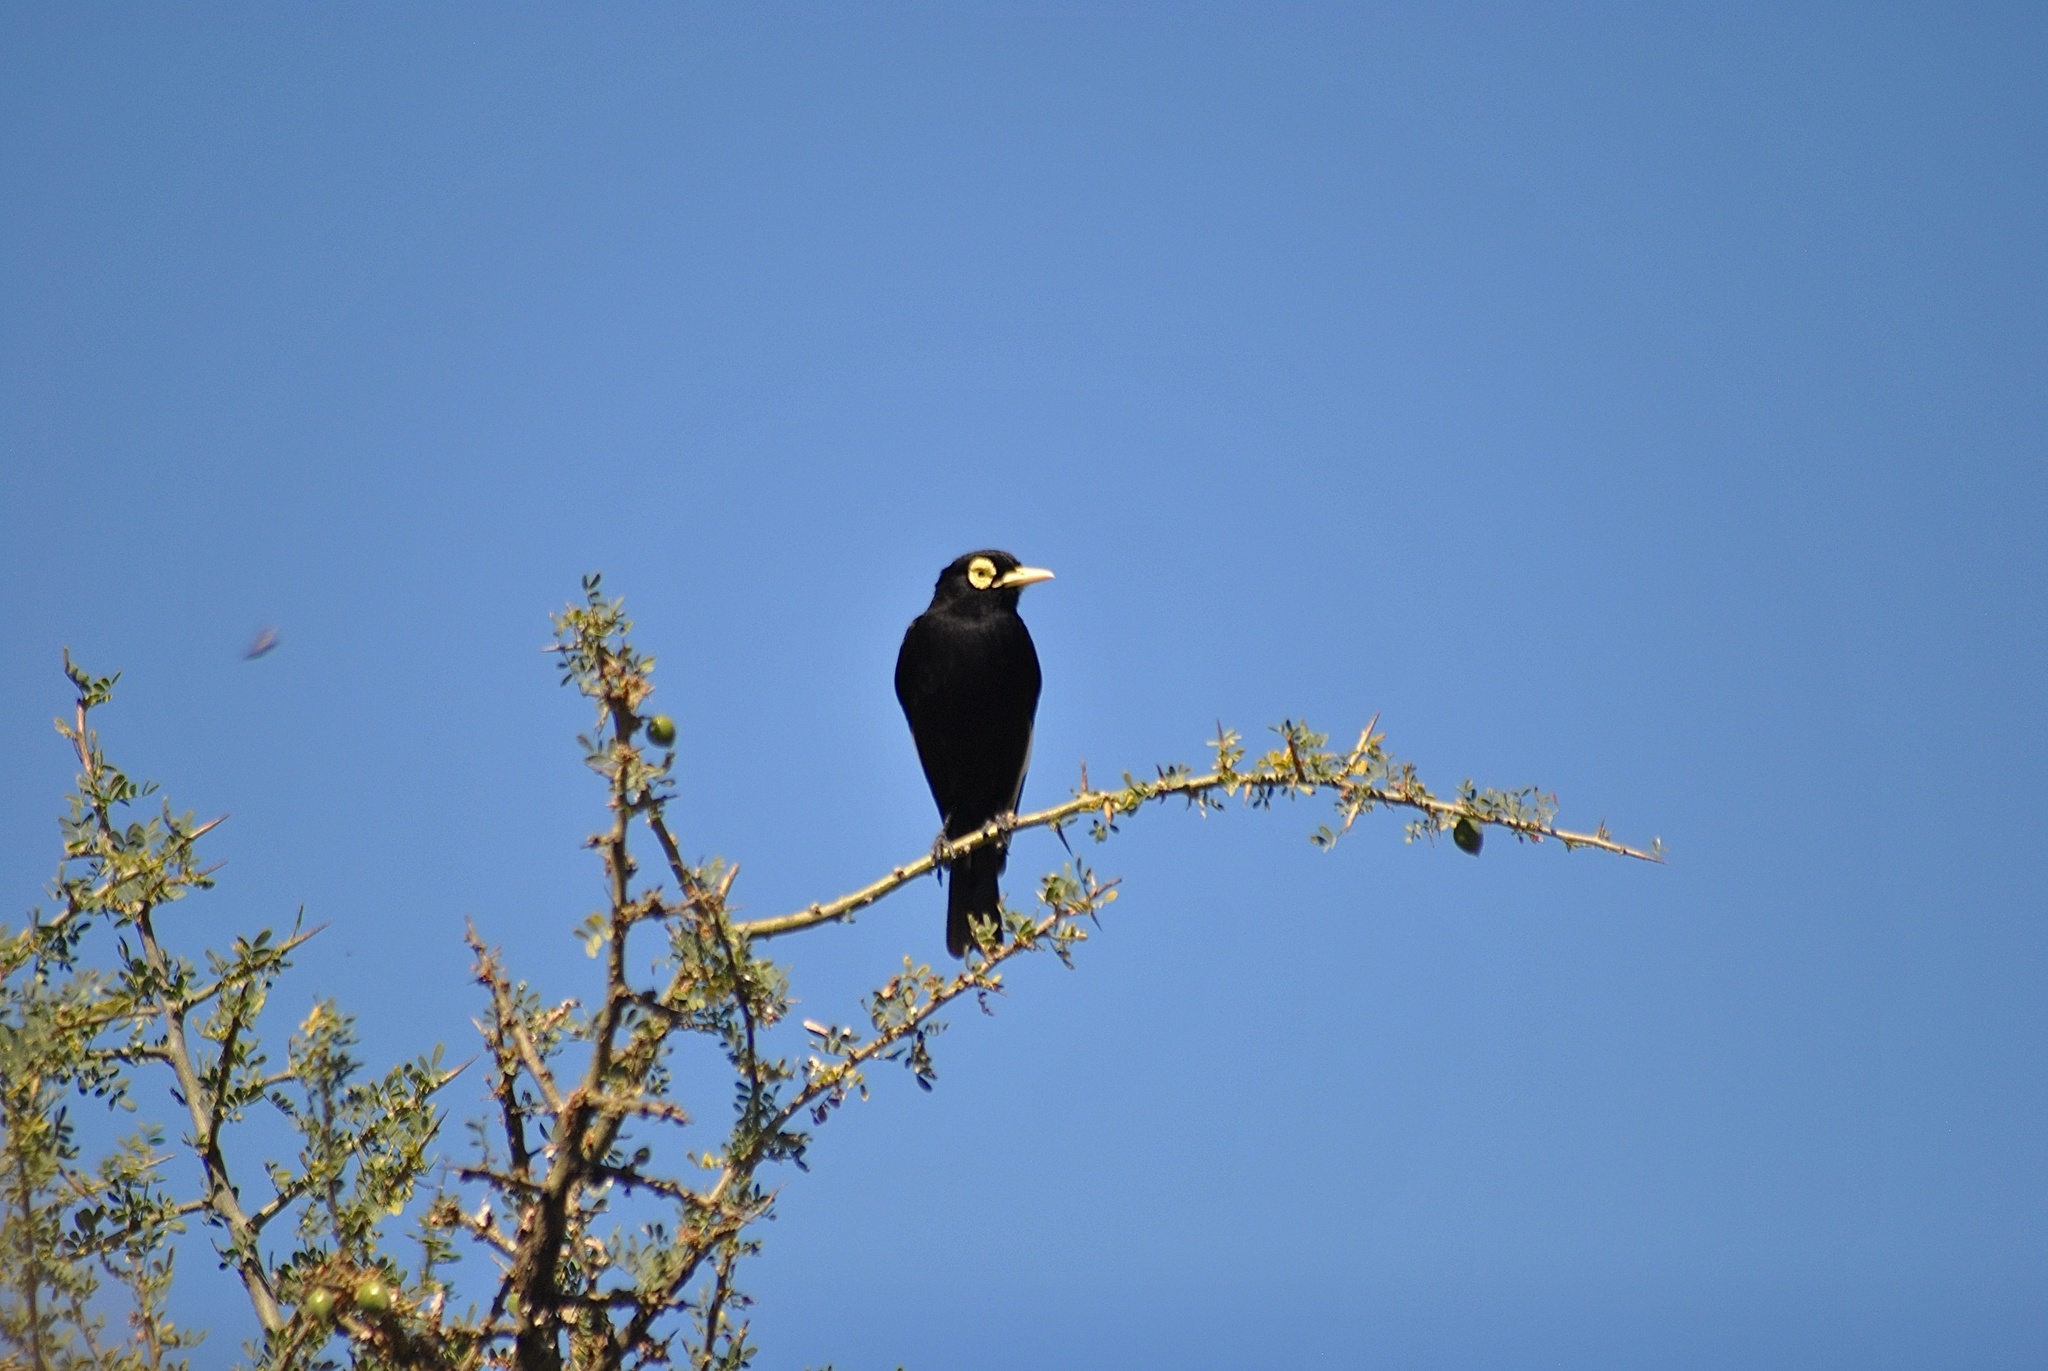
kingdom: Animalia
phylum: Chordata
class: Aves
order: Passeriformes
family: Tyrannidae
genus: Hymenops
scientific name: Hymenops perspicillatus
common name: Spectacled tyrant
